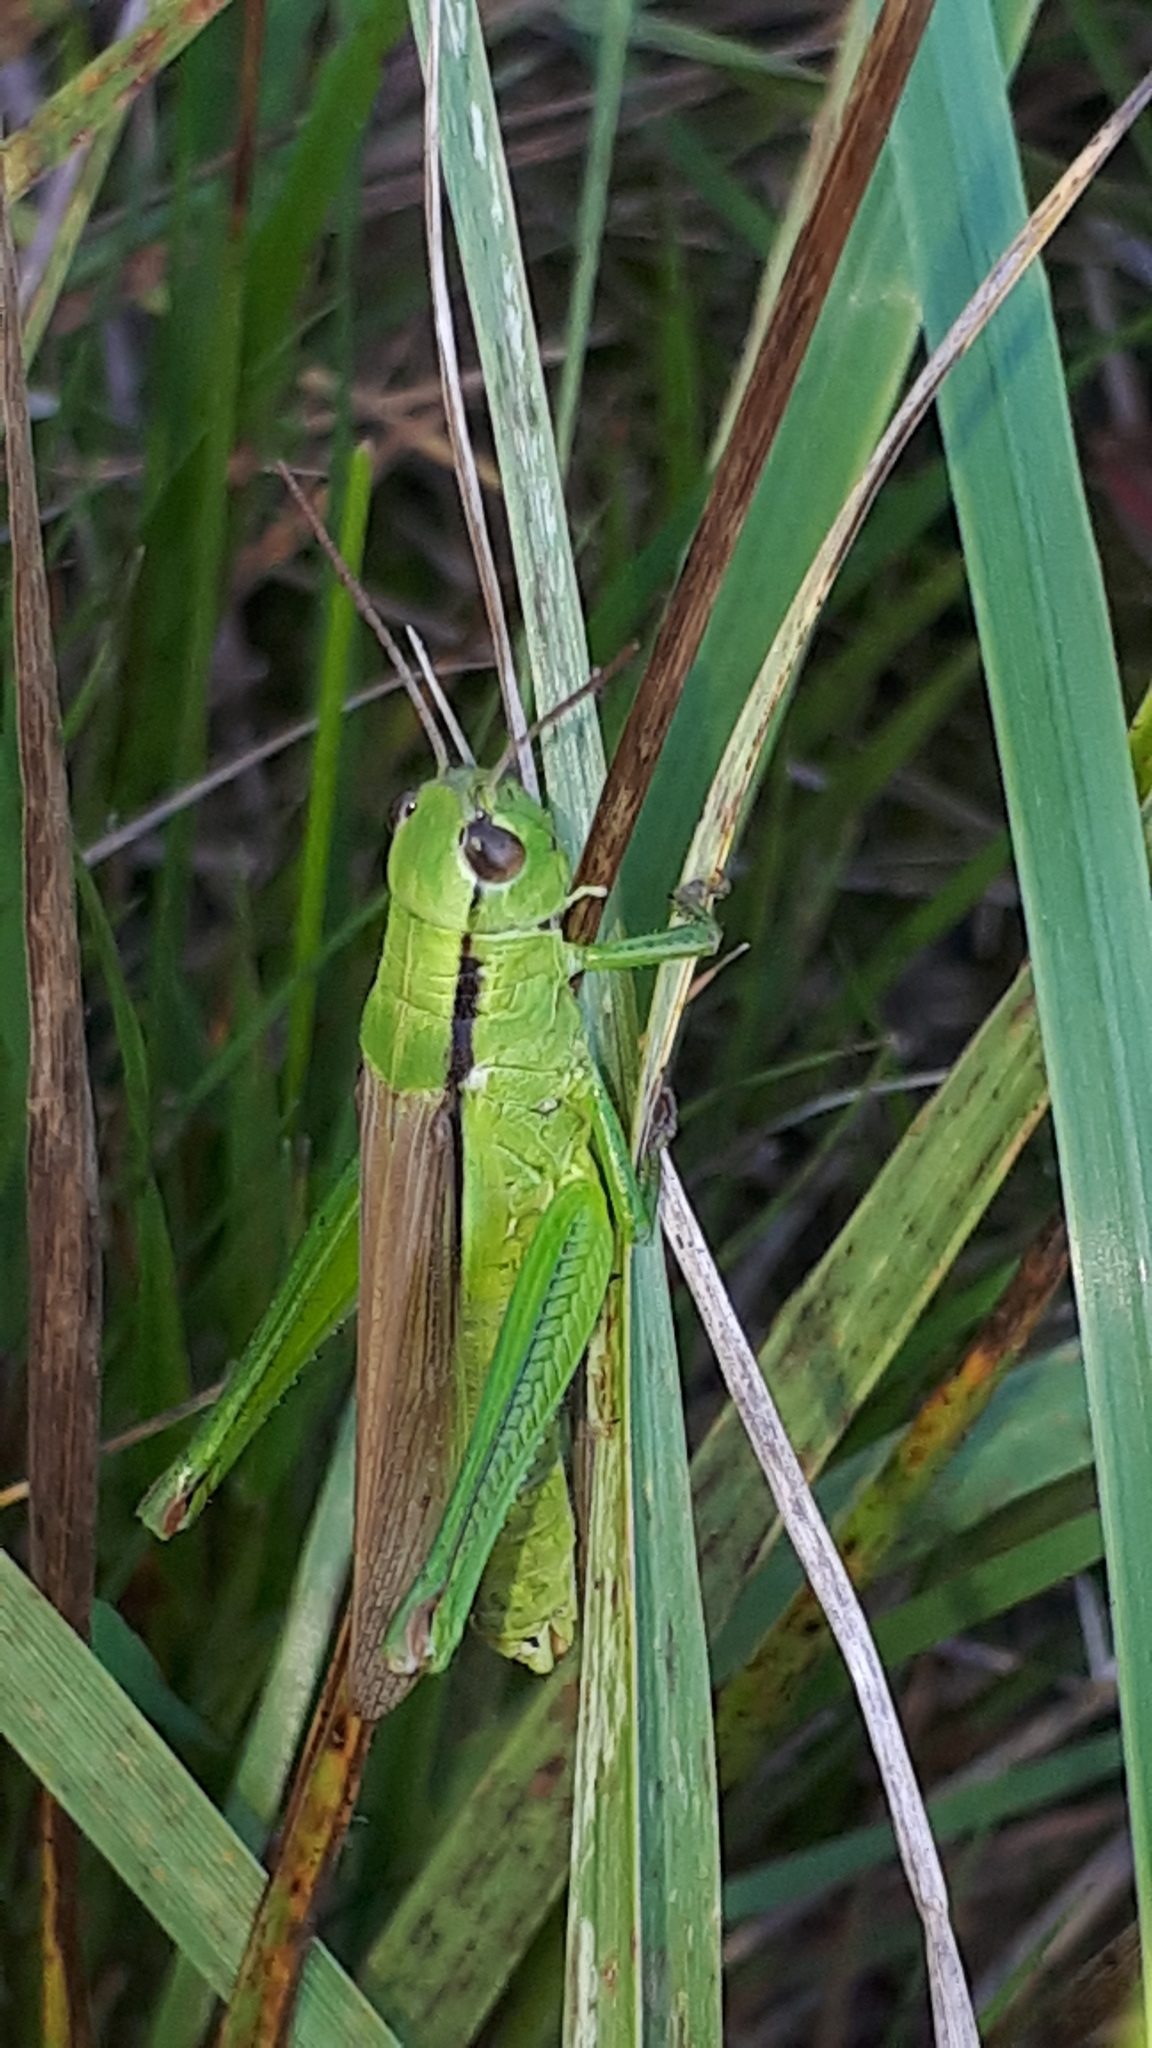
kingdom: Animalia
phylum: Arthropoda
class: Insecta
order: Orthoptera
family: Acrididae
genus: Mecostethus
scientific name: Mecostethus parapleurus
